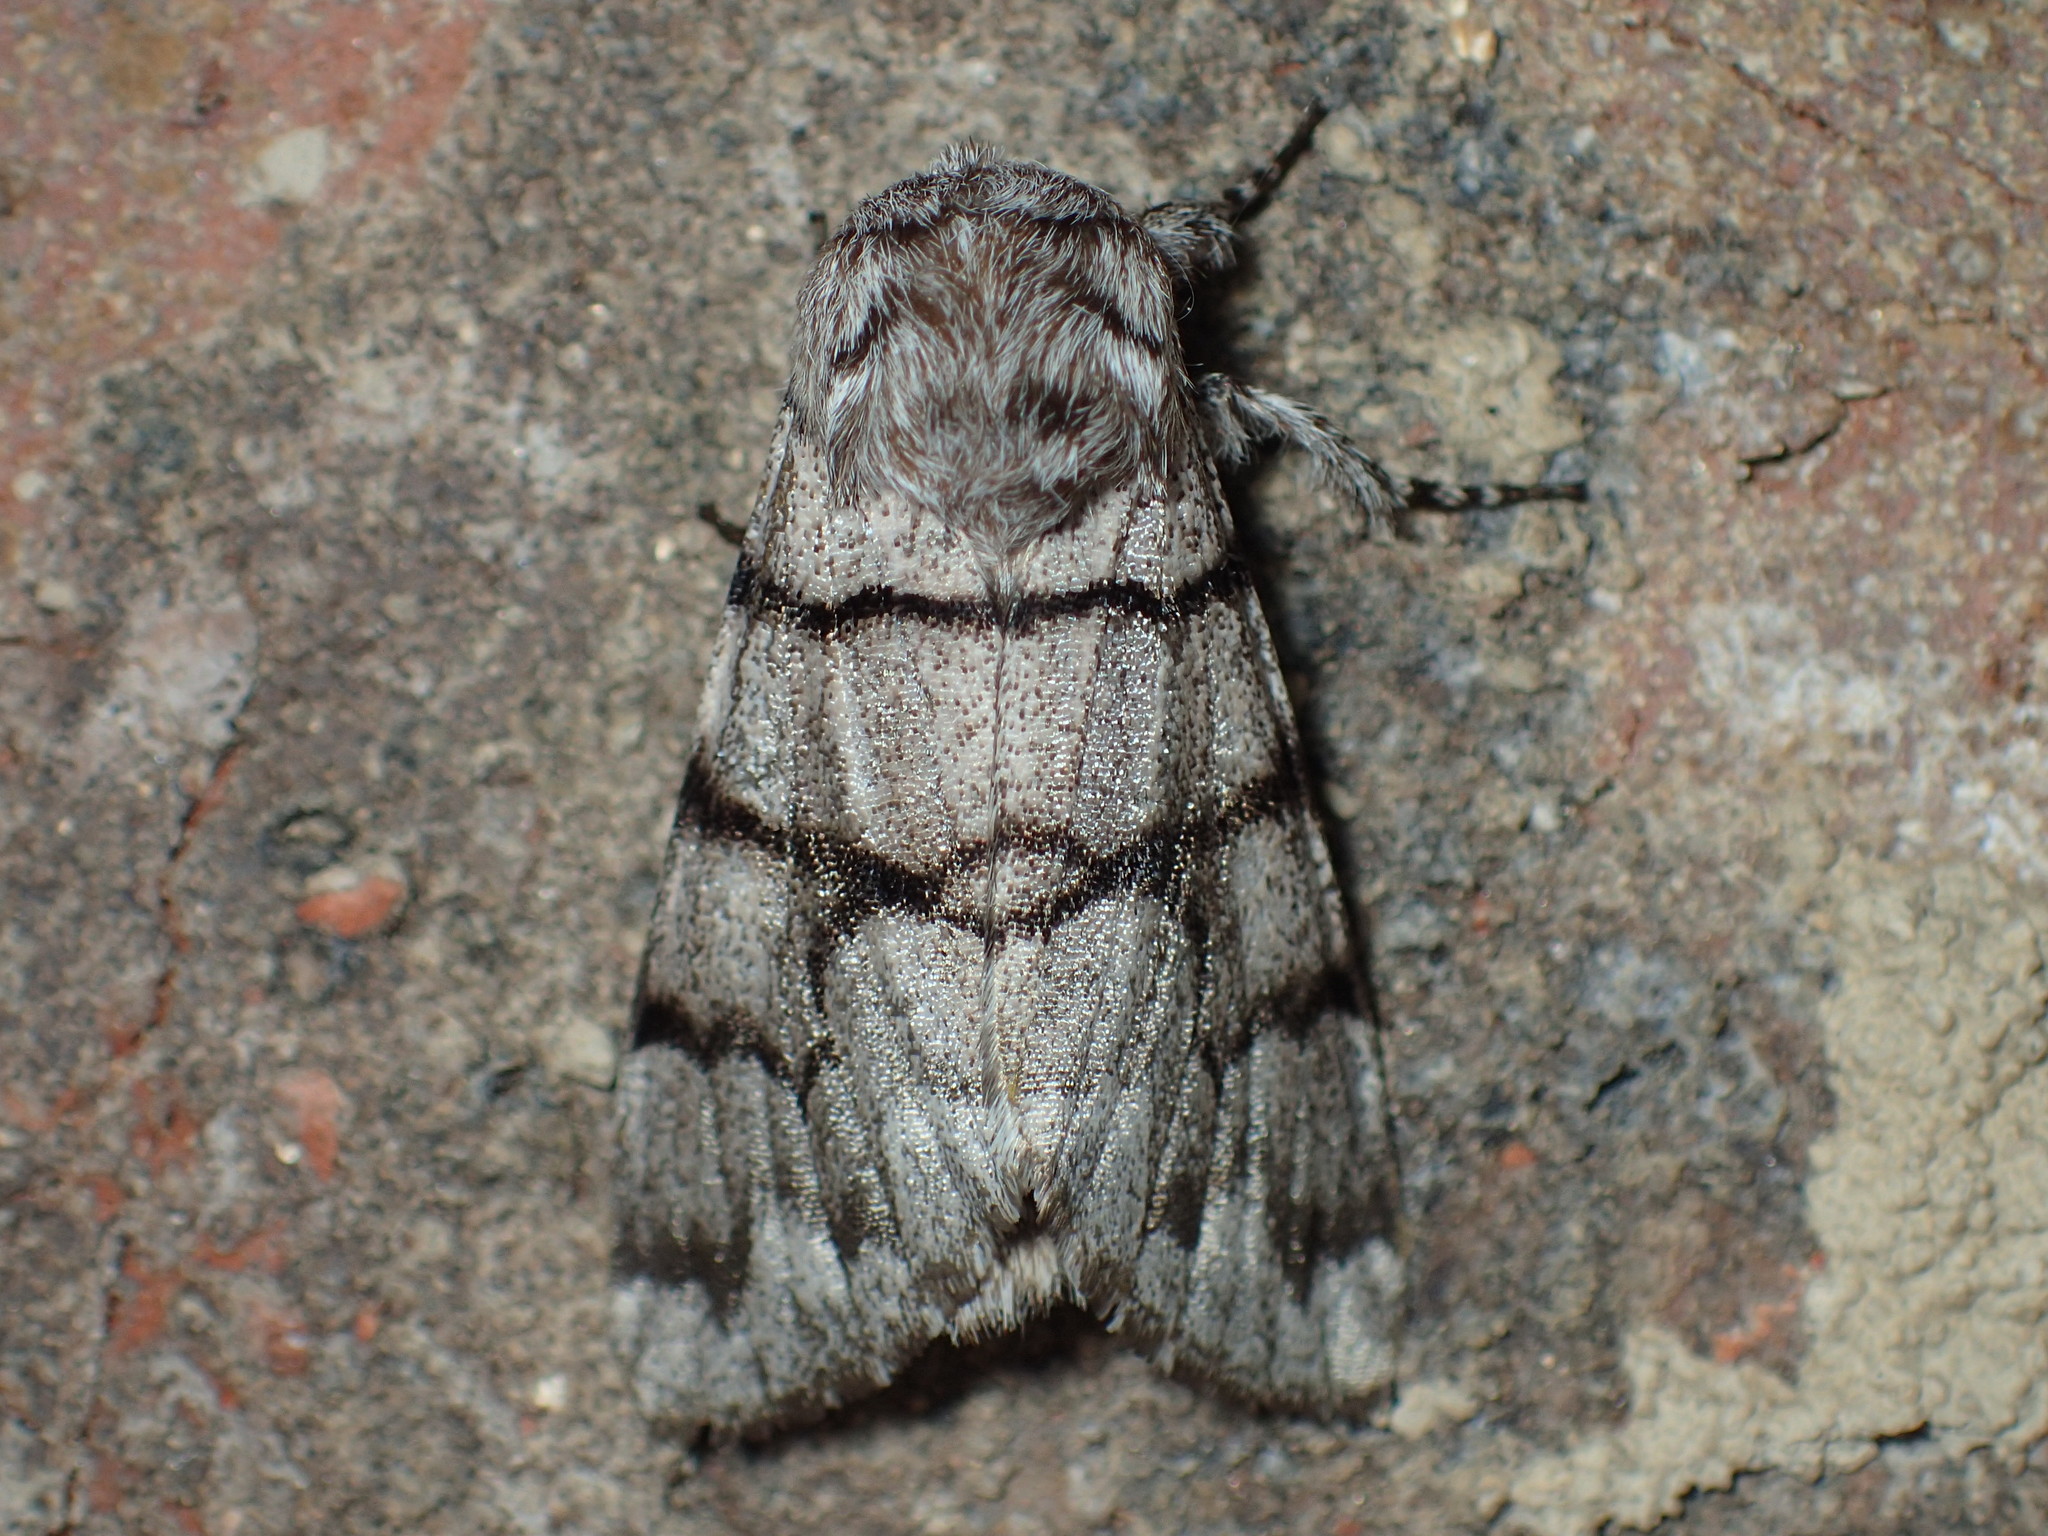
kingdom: Animalia
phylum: Arthropoda
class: Insecta
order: Lepidoptera
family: Noctuidae
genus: Panthea
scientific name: Panthea furcilla
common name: Eastern panthea moth
